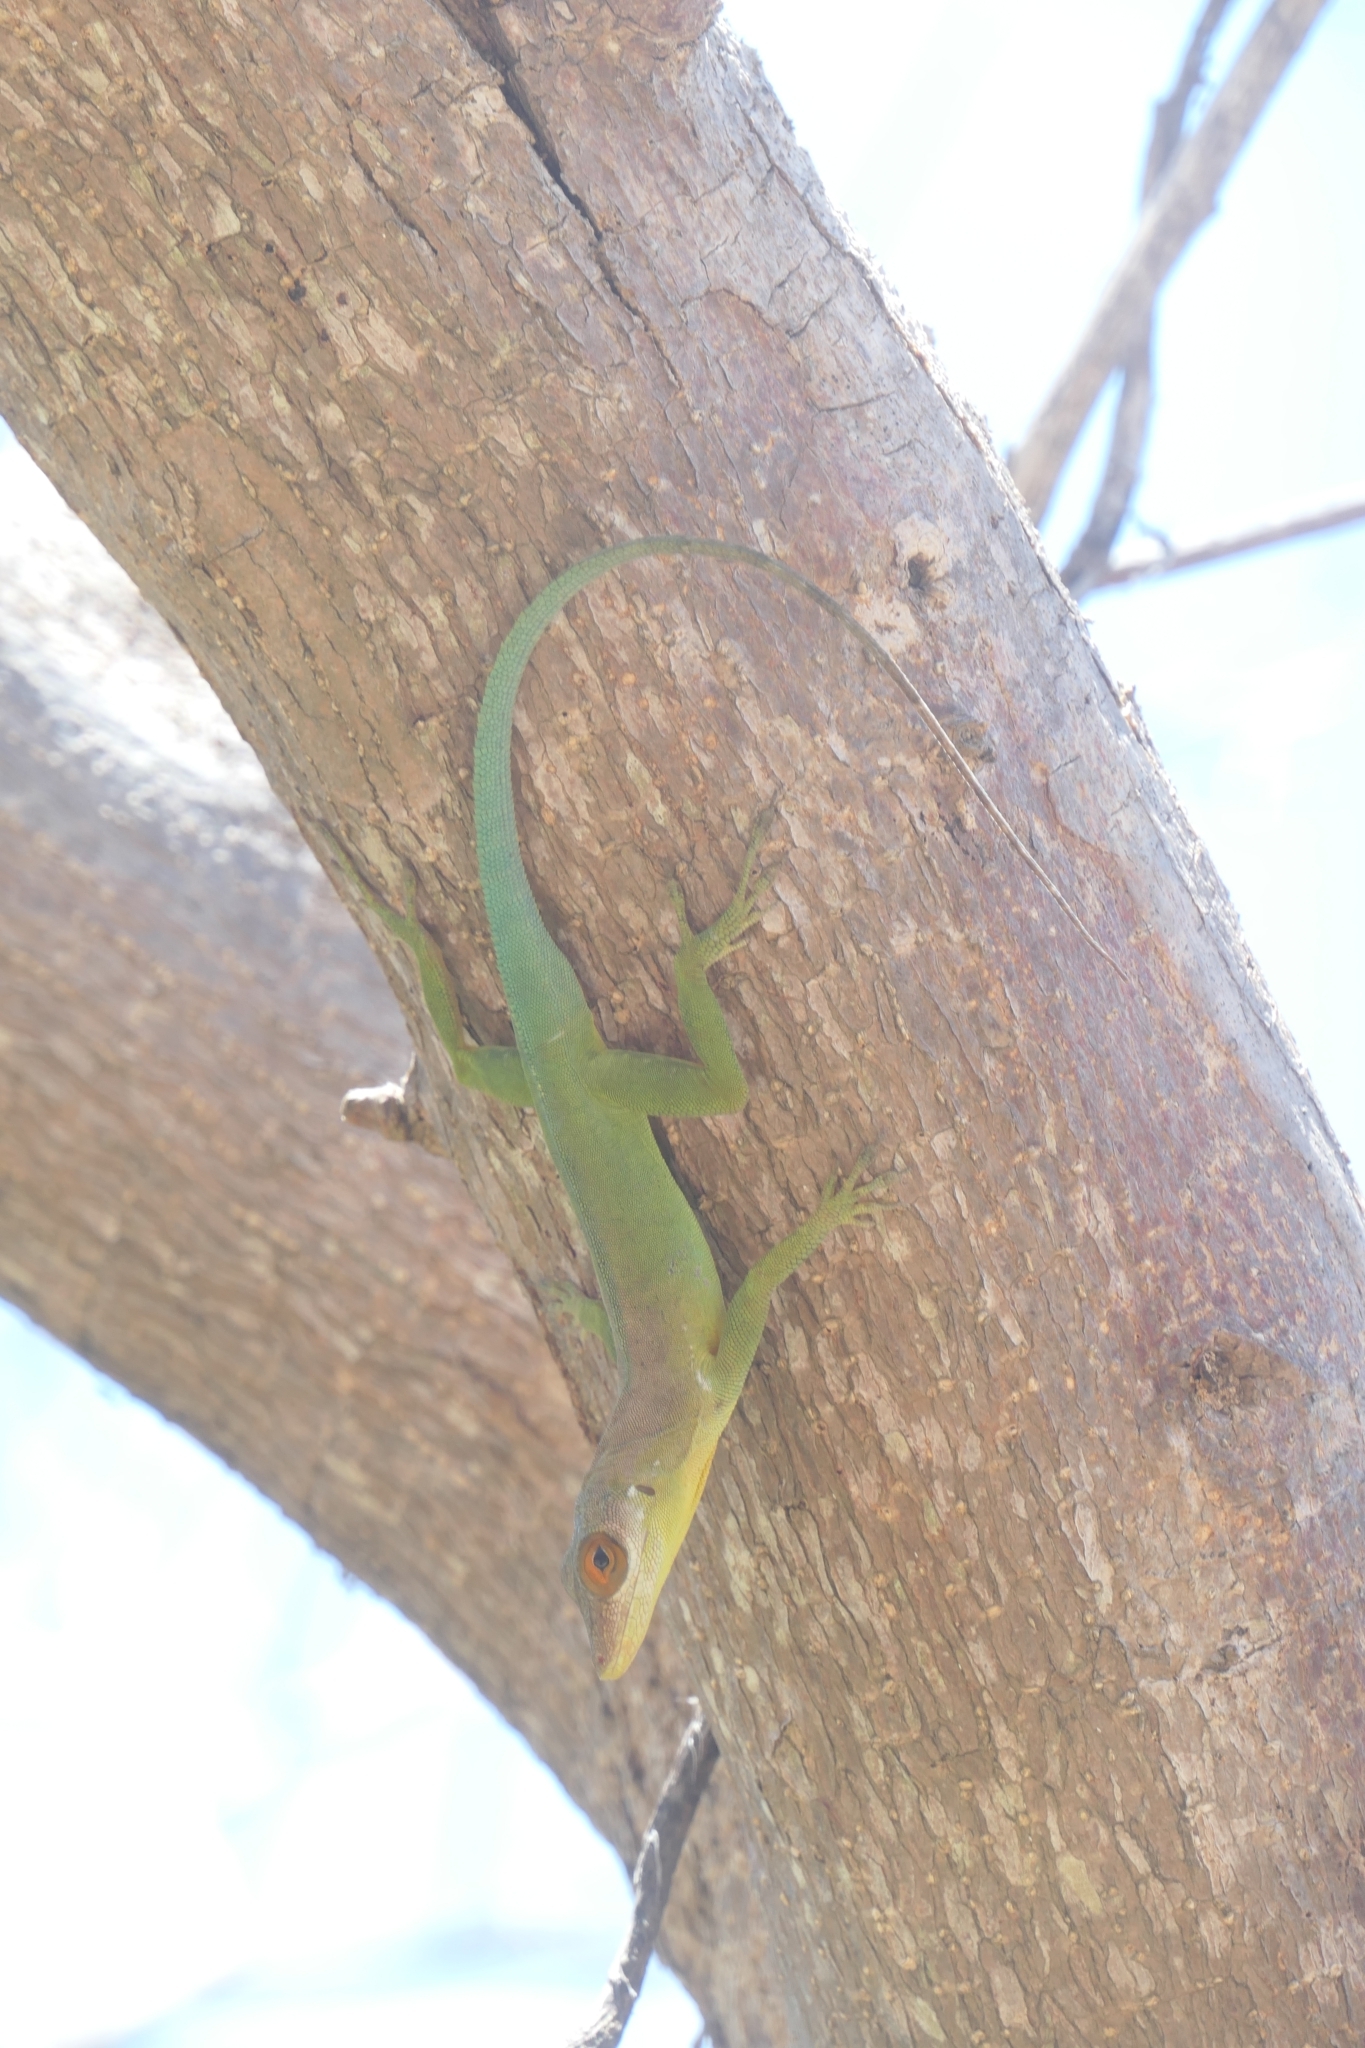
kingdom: Animalia
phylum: Chordata
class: Squamata
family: Dactyloidae
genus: Anolis
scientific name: Anolis lividus
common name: Montserrat anole
